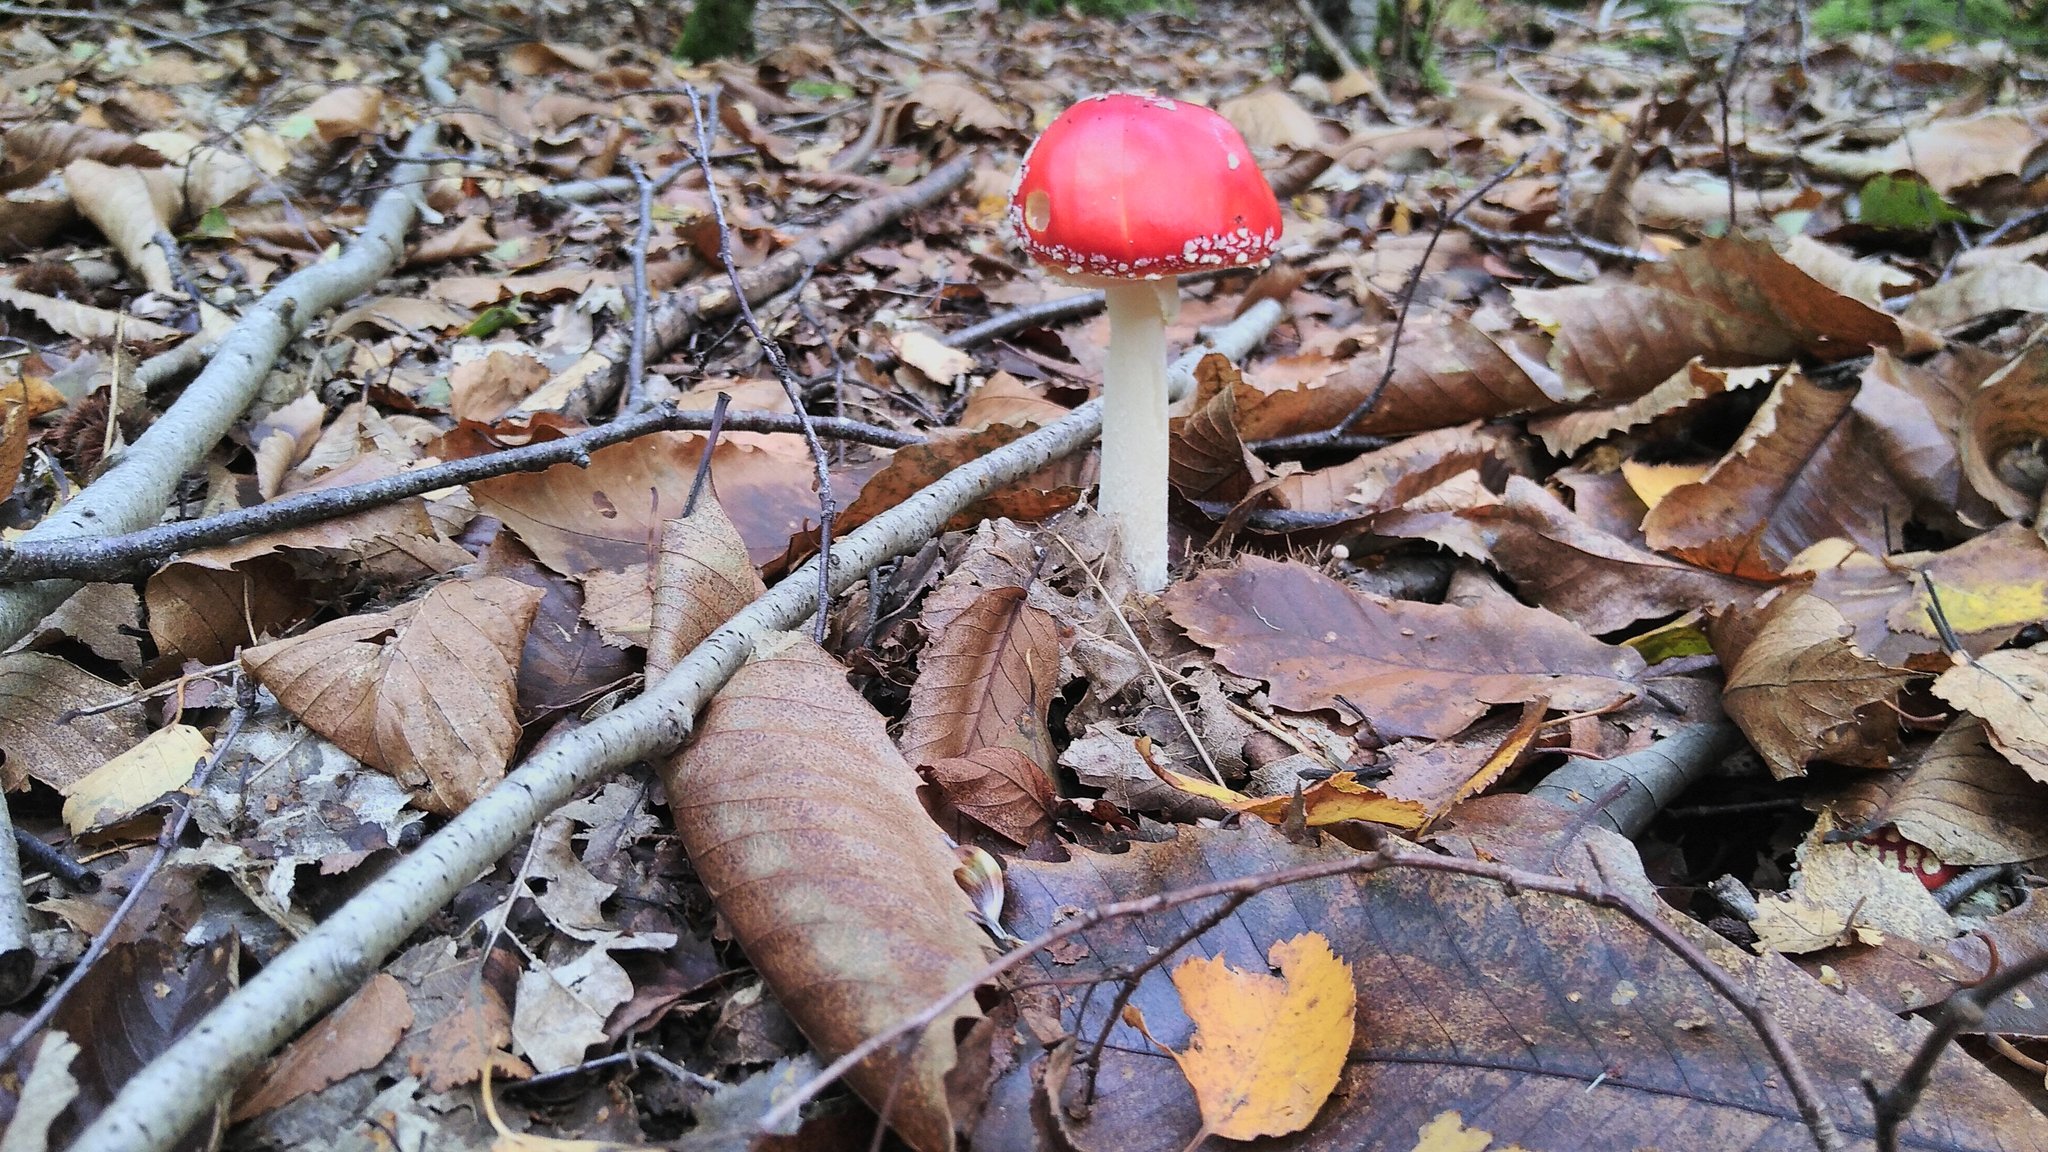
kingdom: Fungi
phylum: Basidiomycota
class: Agaricomycetes
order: Agaricales
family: Amanitaceae
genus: Amanita
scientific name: Amanita muscaria
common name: Fly agaric
